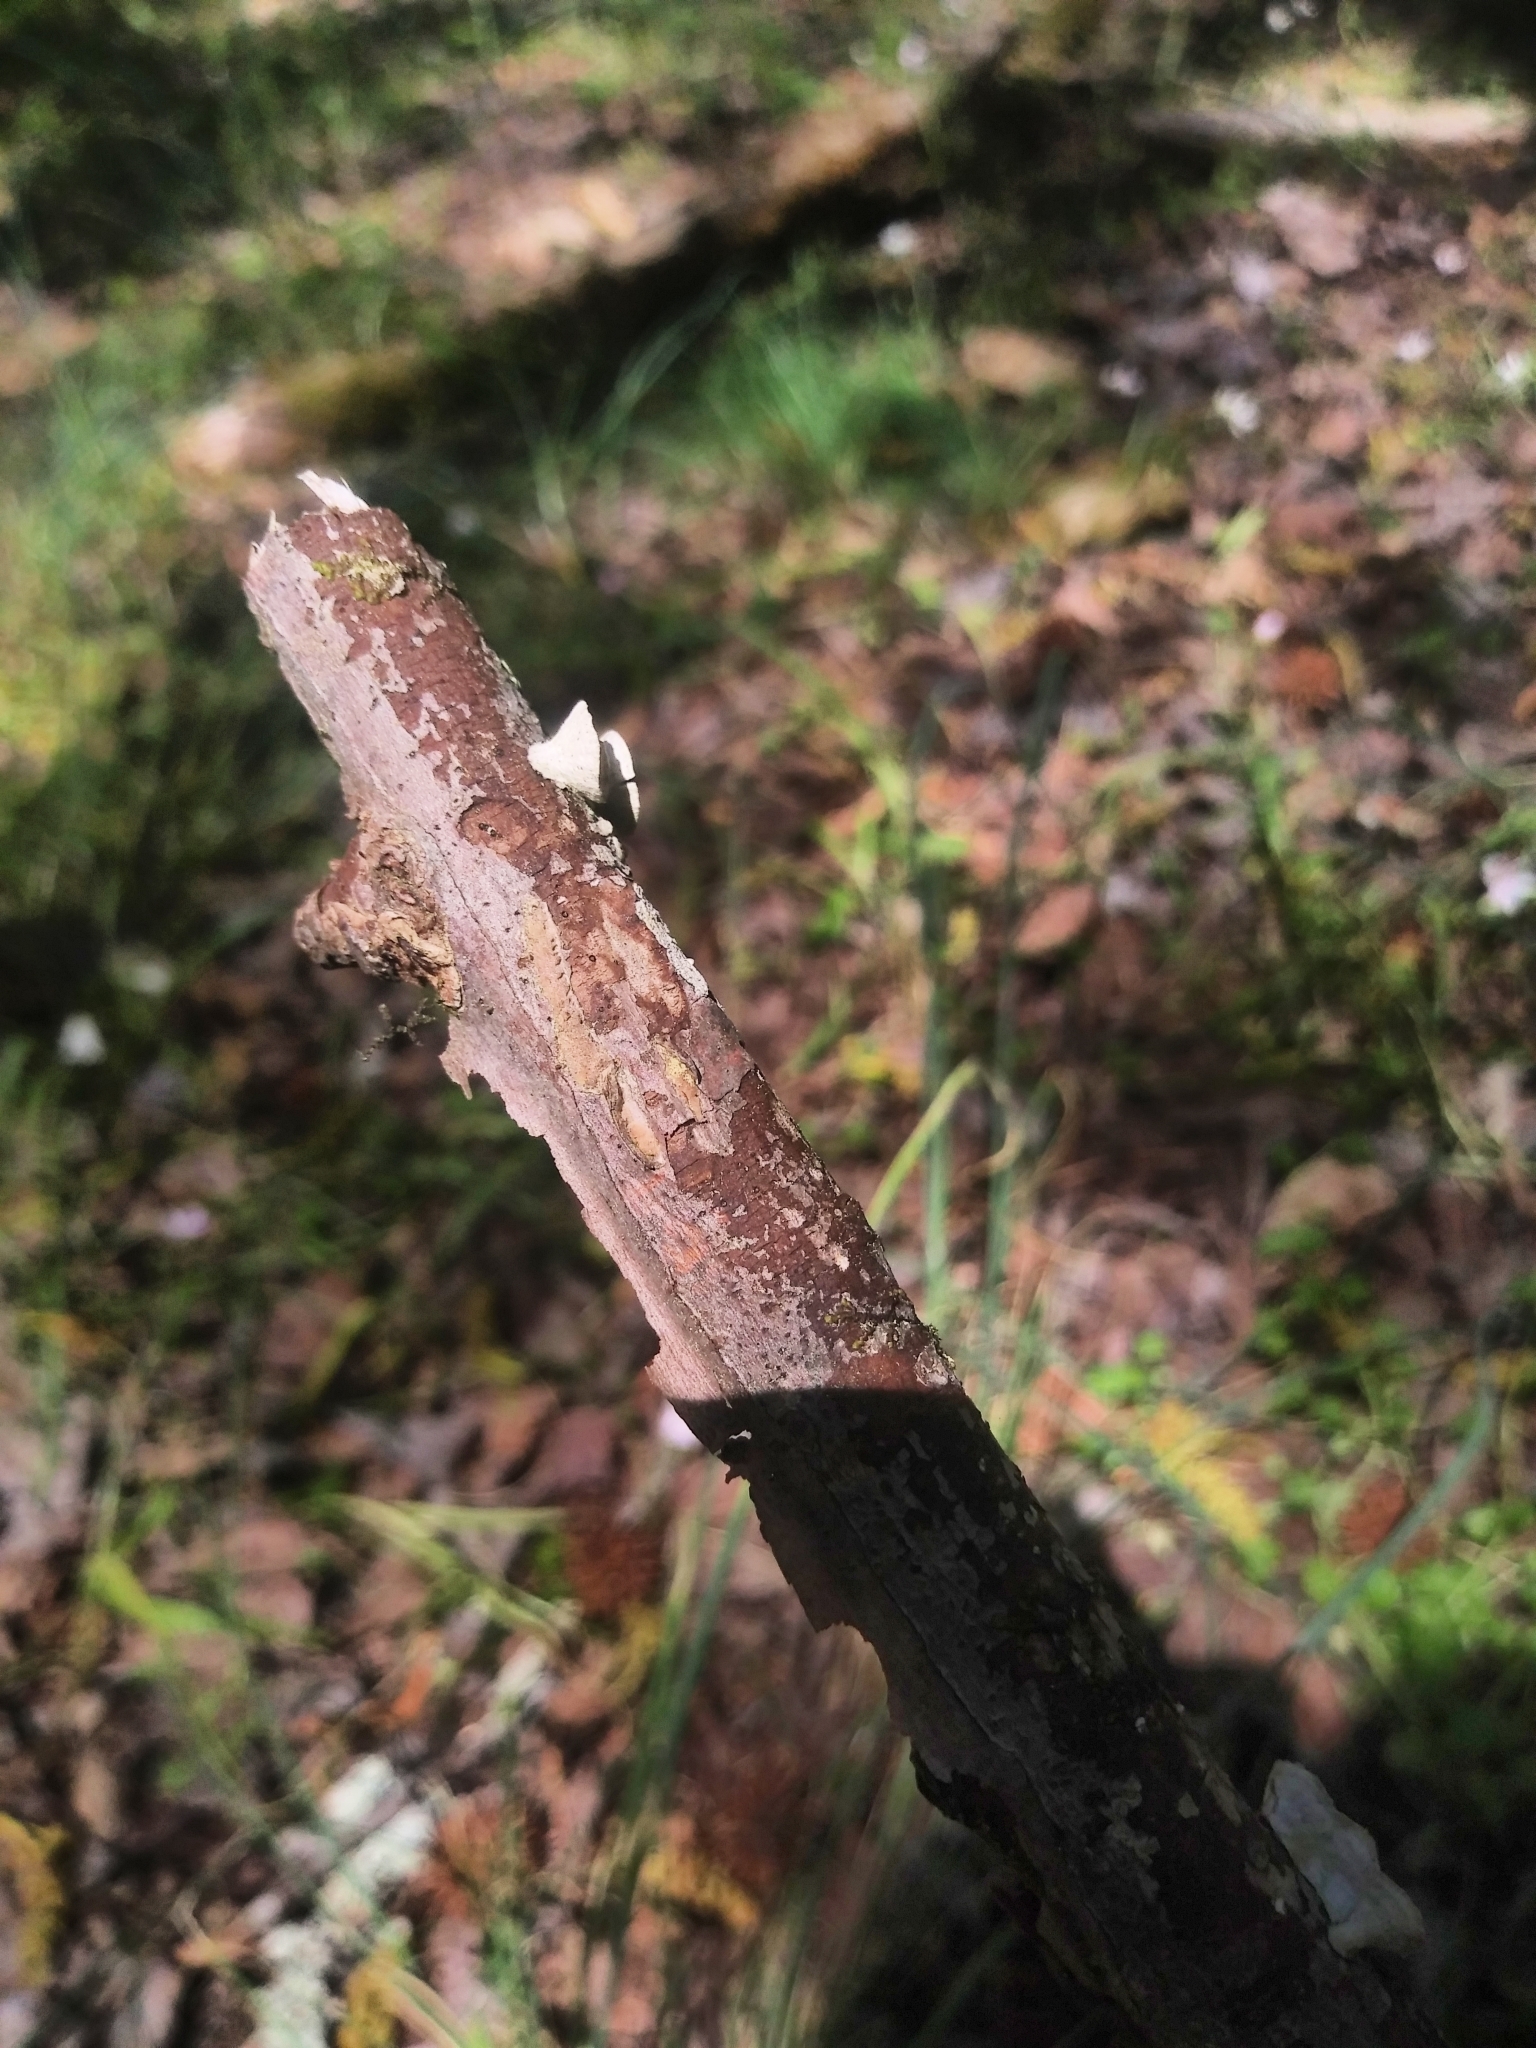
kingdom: Fungi
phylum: Basidiomycota
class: Agaricomycetes
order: Polyporales
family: Polyporaceae
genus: Poronidulus
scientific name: Poronidulus conchifer
